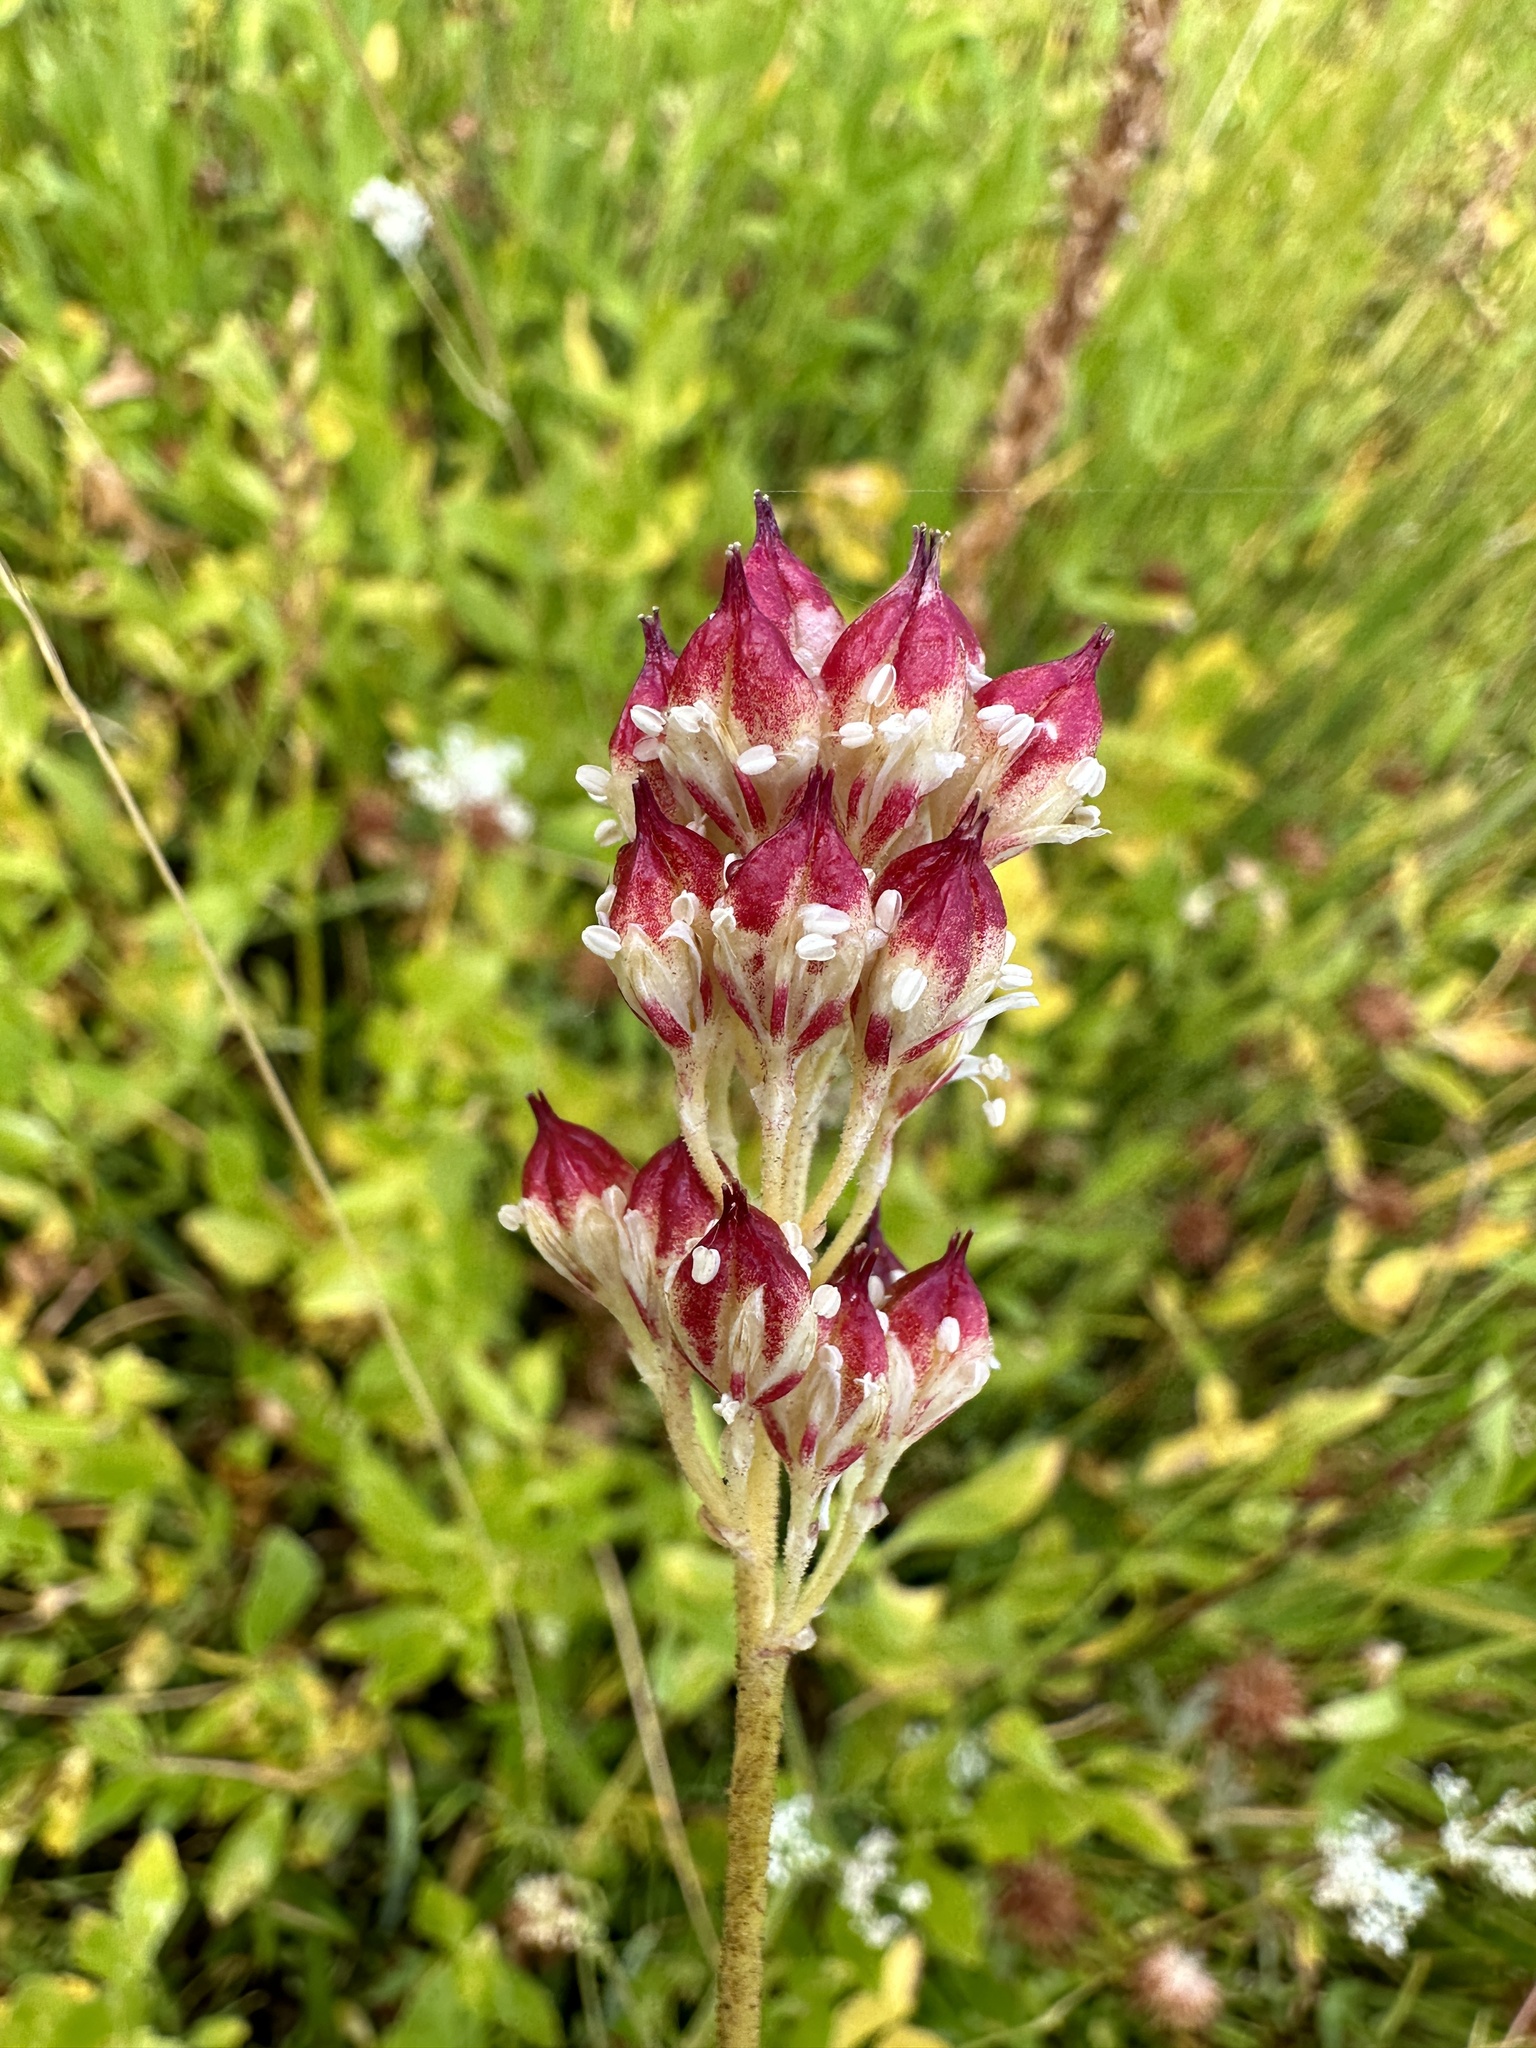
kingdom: Plantae
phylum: Tracheophyta
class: Liliopsida
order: Alismatales
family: Tofieldiaceae
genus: Triantha
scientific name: Triantha occidentalis
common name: Western false asphodel
